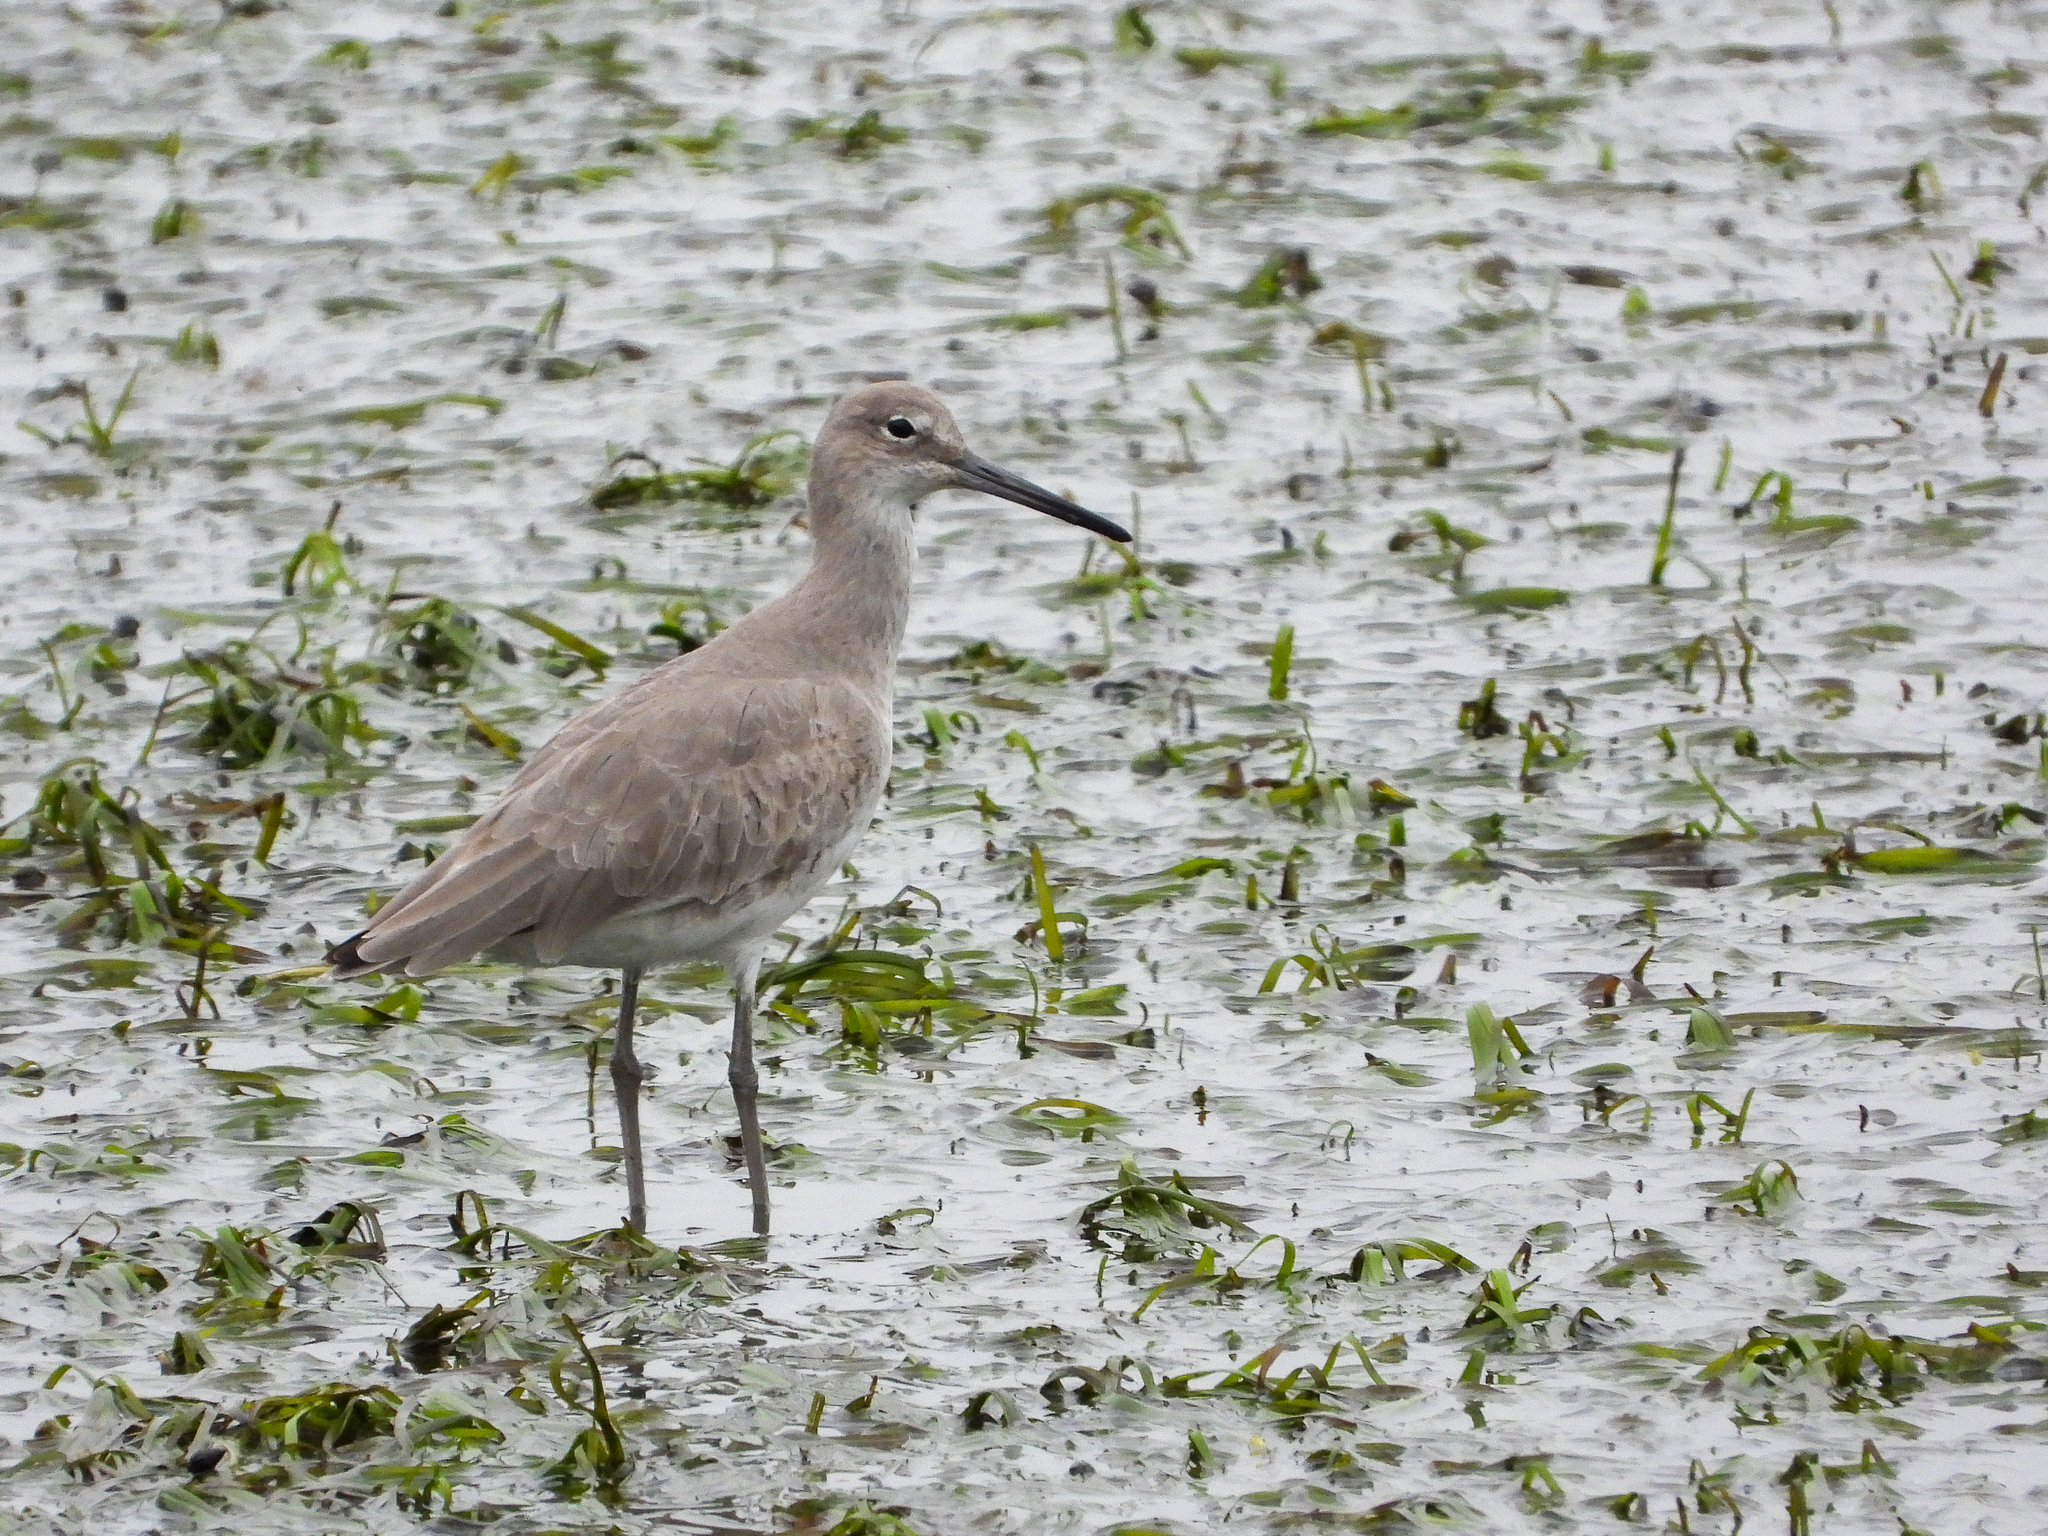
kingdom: Animalia
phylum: Chordata
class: Aves
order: Charadriiformes
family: Scolopacidae
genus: Tringa
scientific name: Tringa semipalmata
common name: Willet
